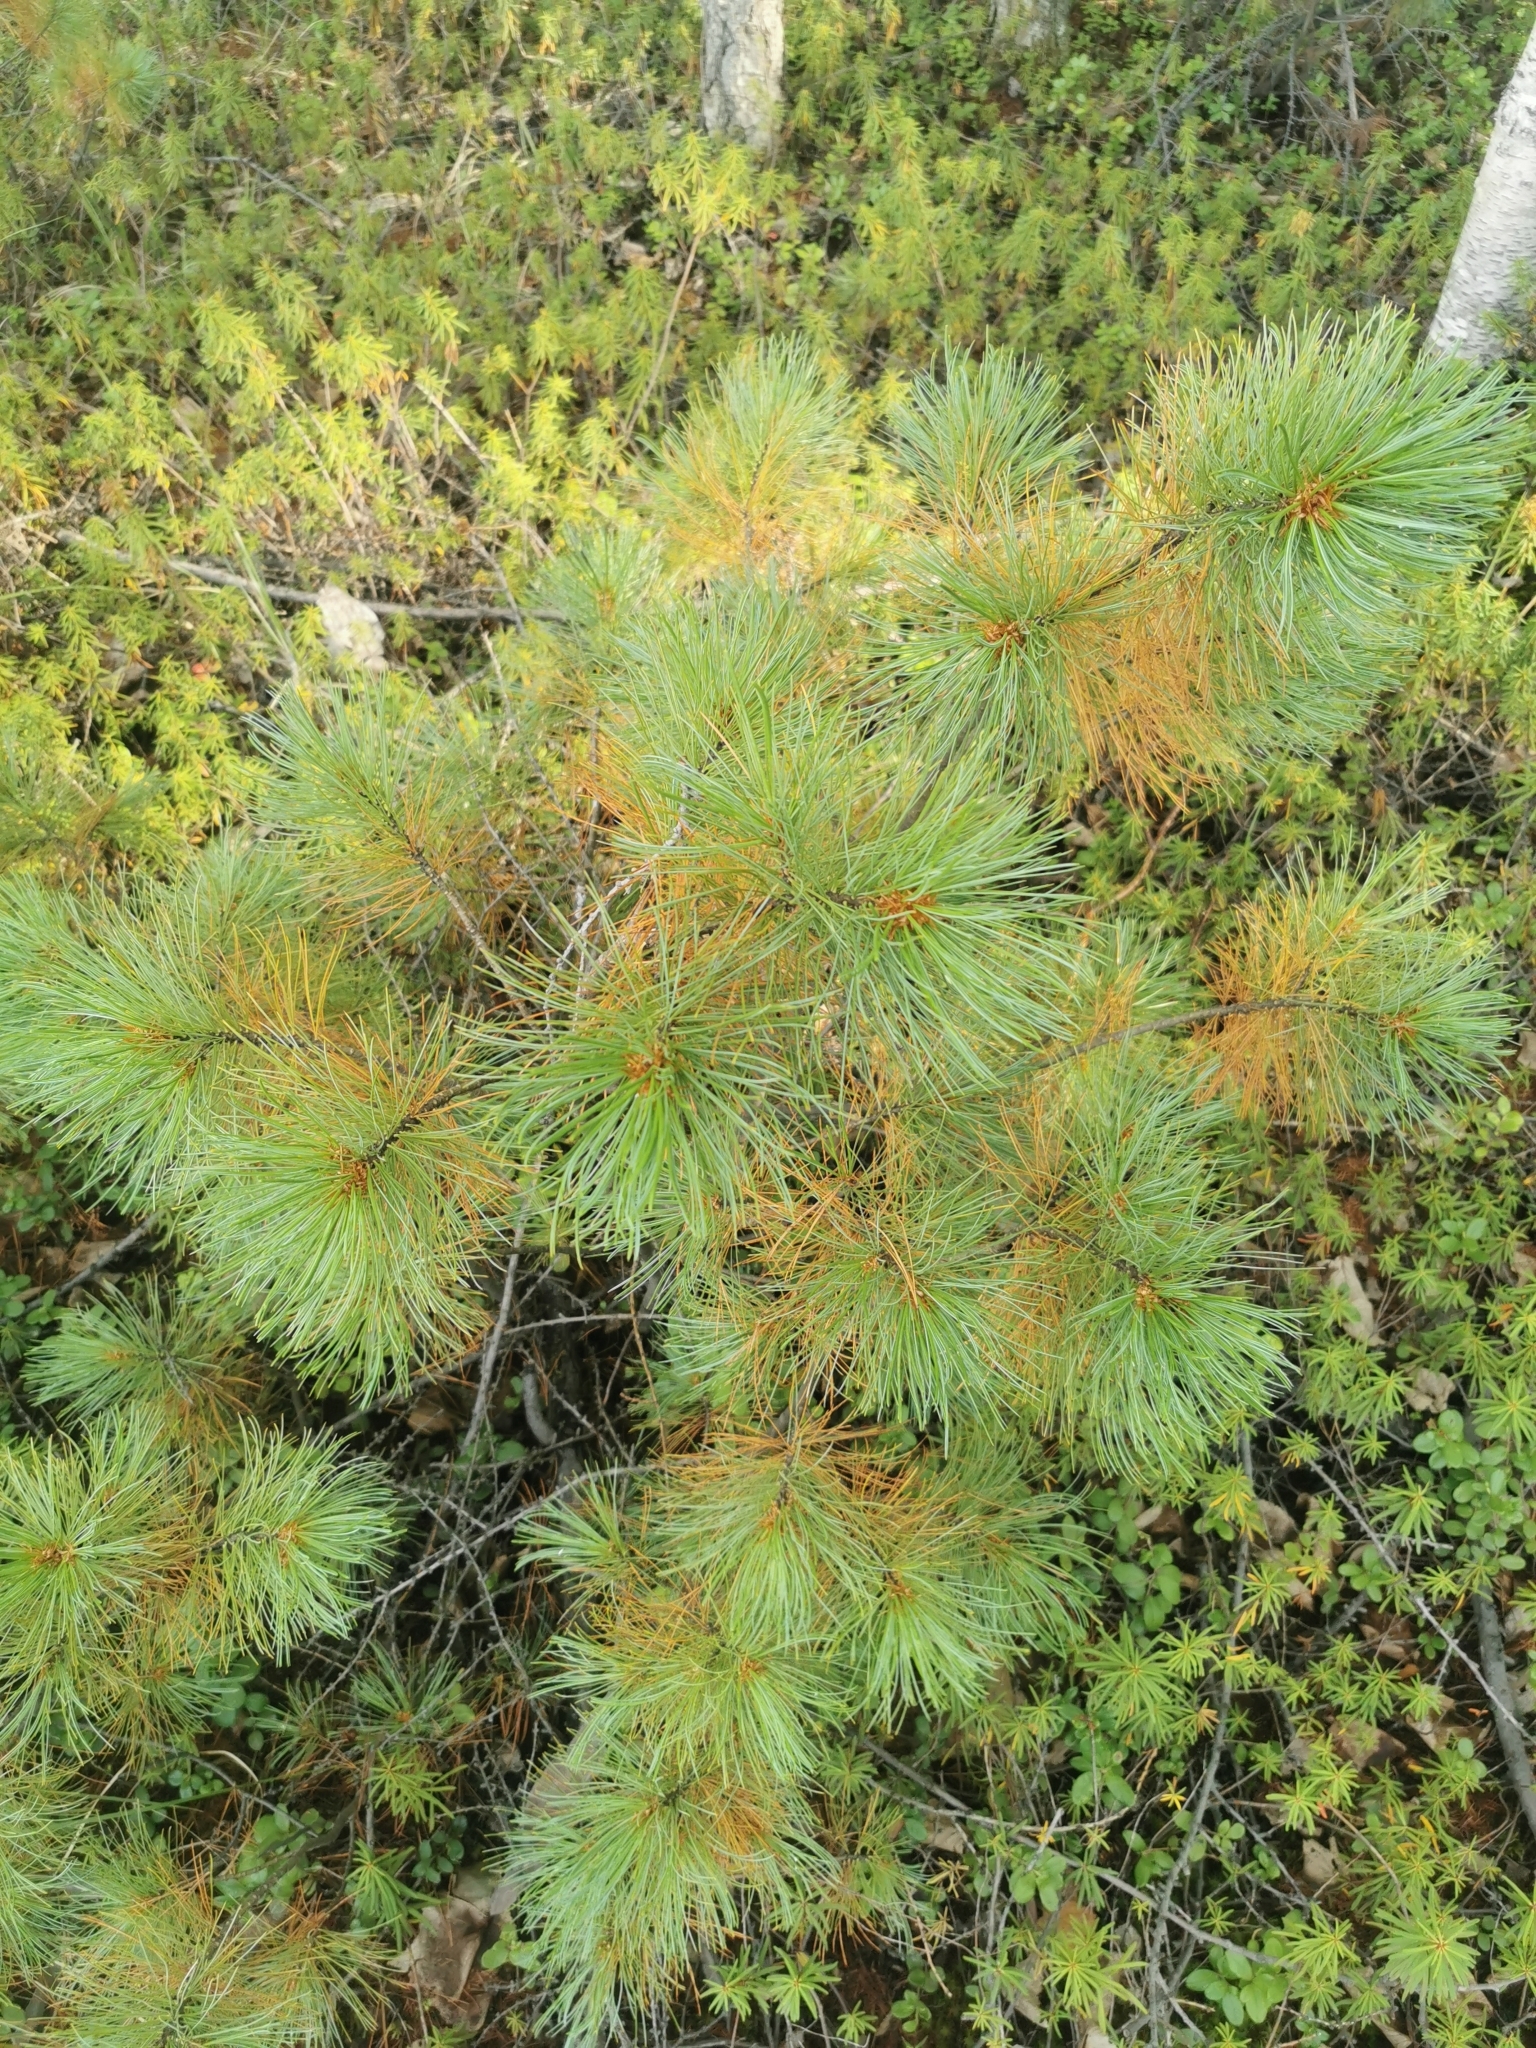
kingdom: Plantae
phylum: Tracheophyta
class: Pinopsida
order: Pinales
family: Pinaceae
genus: Pinus
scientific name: Pinus pumila
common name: Dwarf siberian pine
